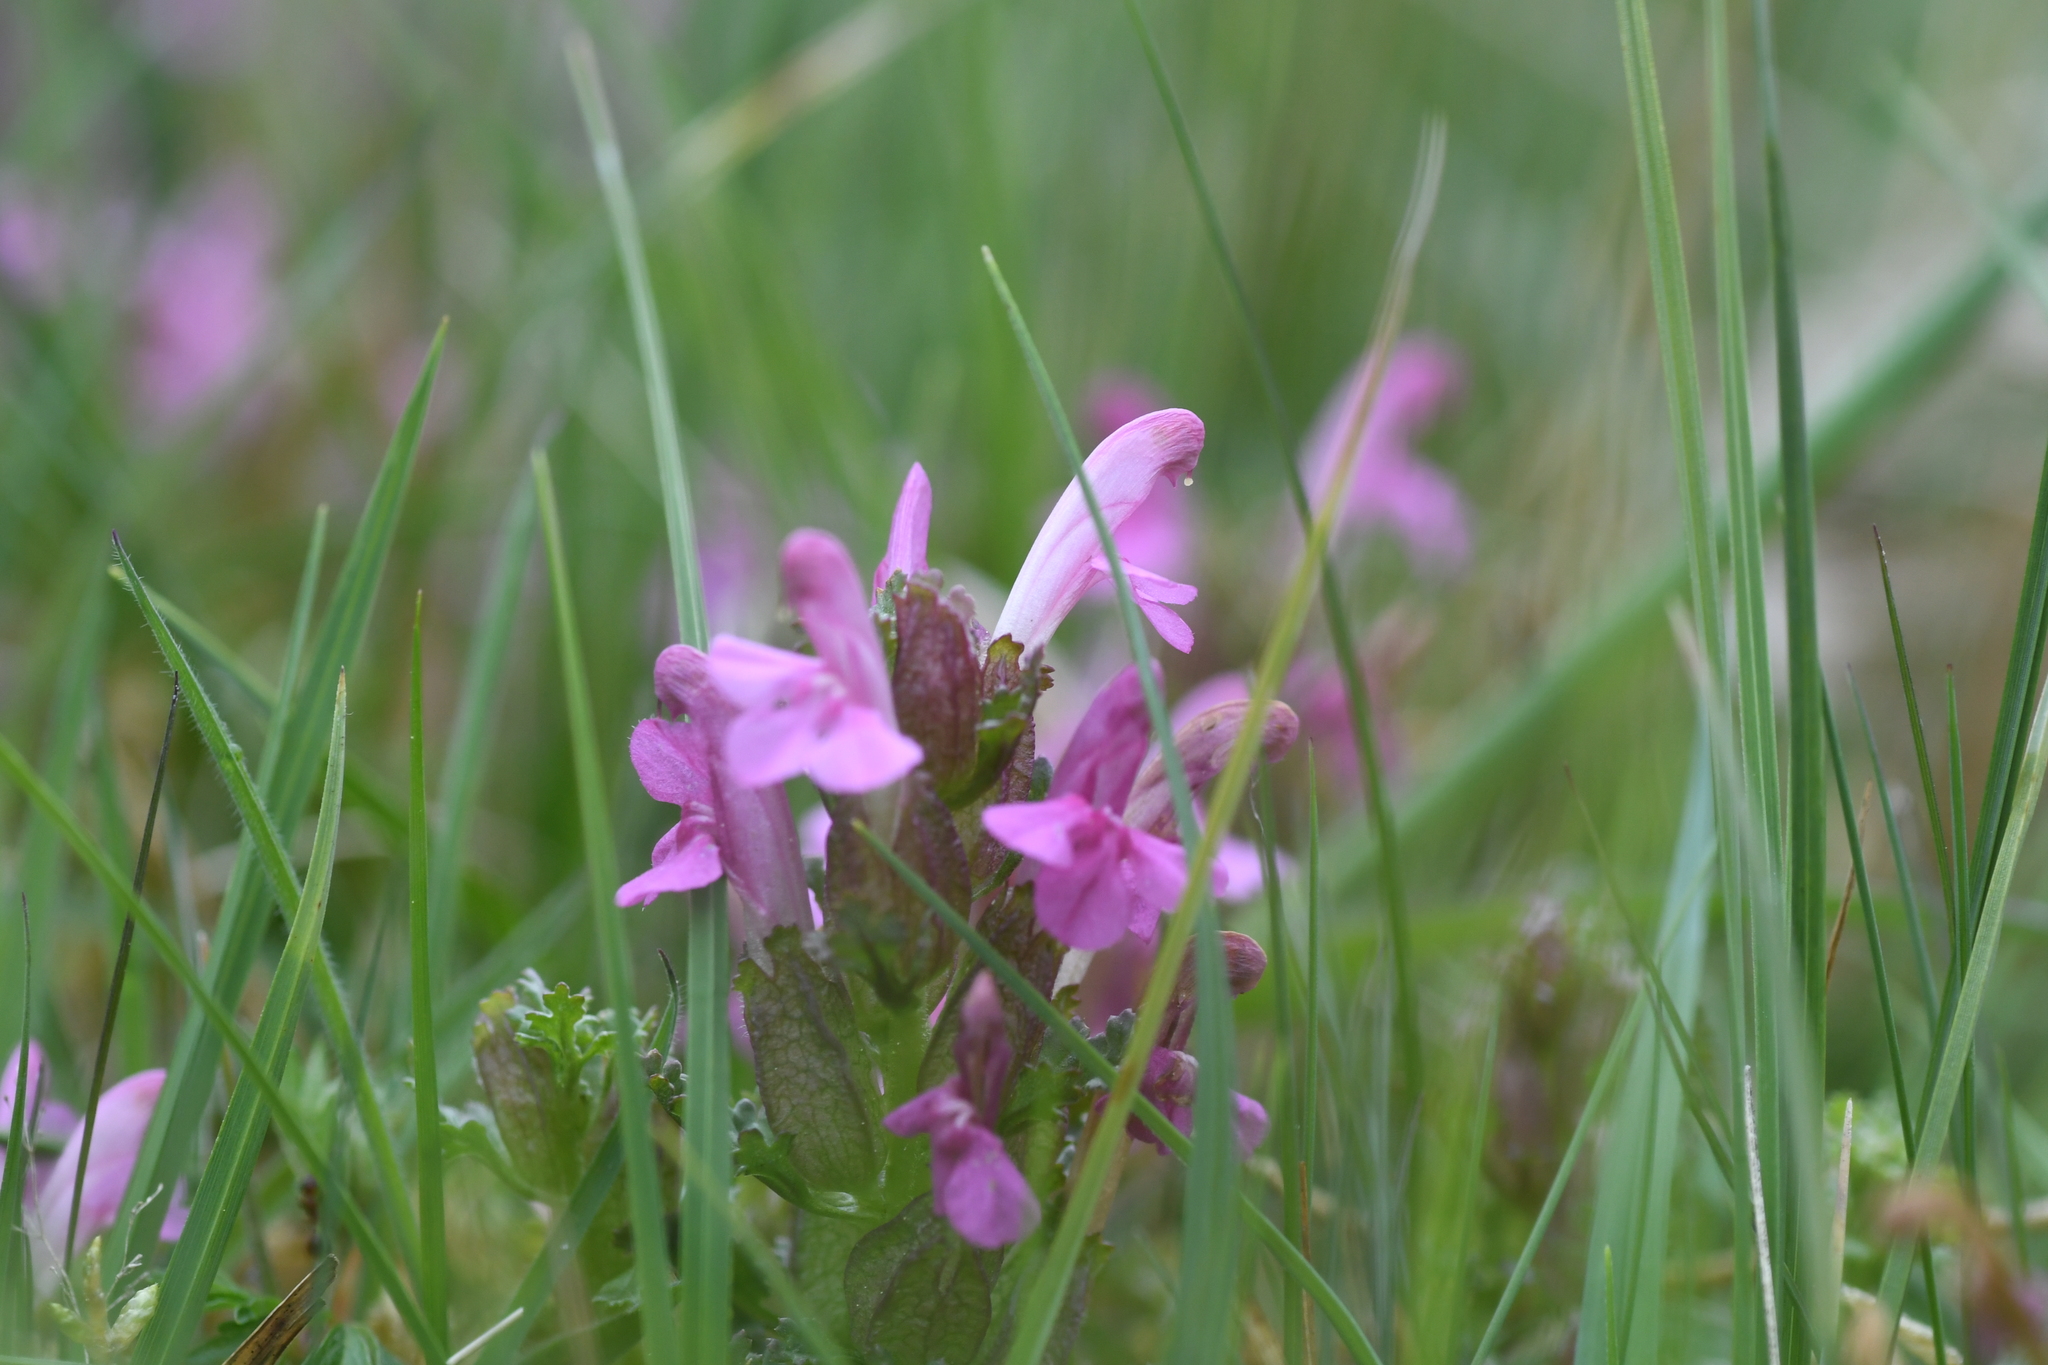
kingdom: Plantae
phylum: Tracheophyta
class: Magnoliopsida
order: Lamiales
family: Orobanchaceae
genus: Pedicularis
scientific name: Pedicularis sylvatica
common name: Lousewort
